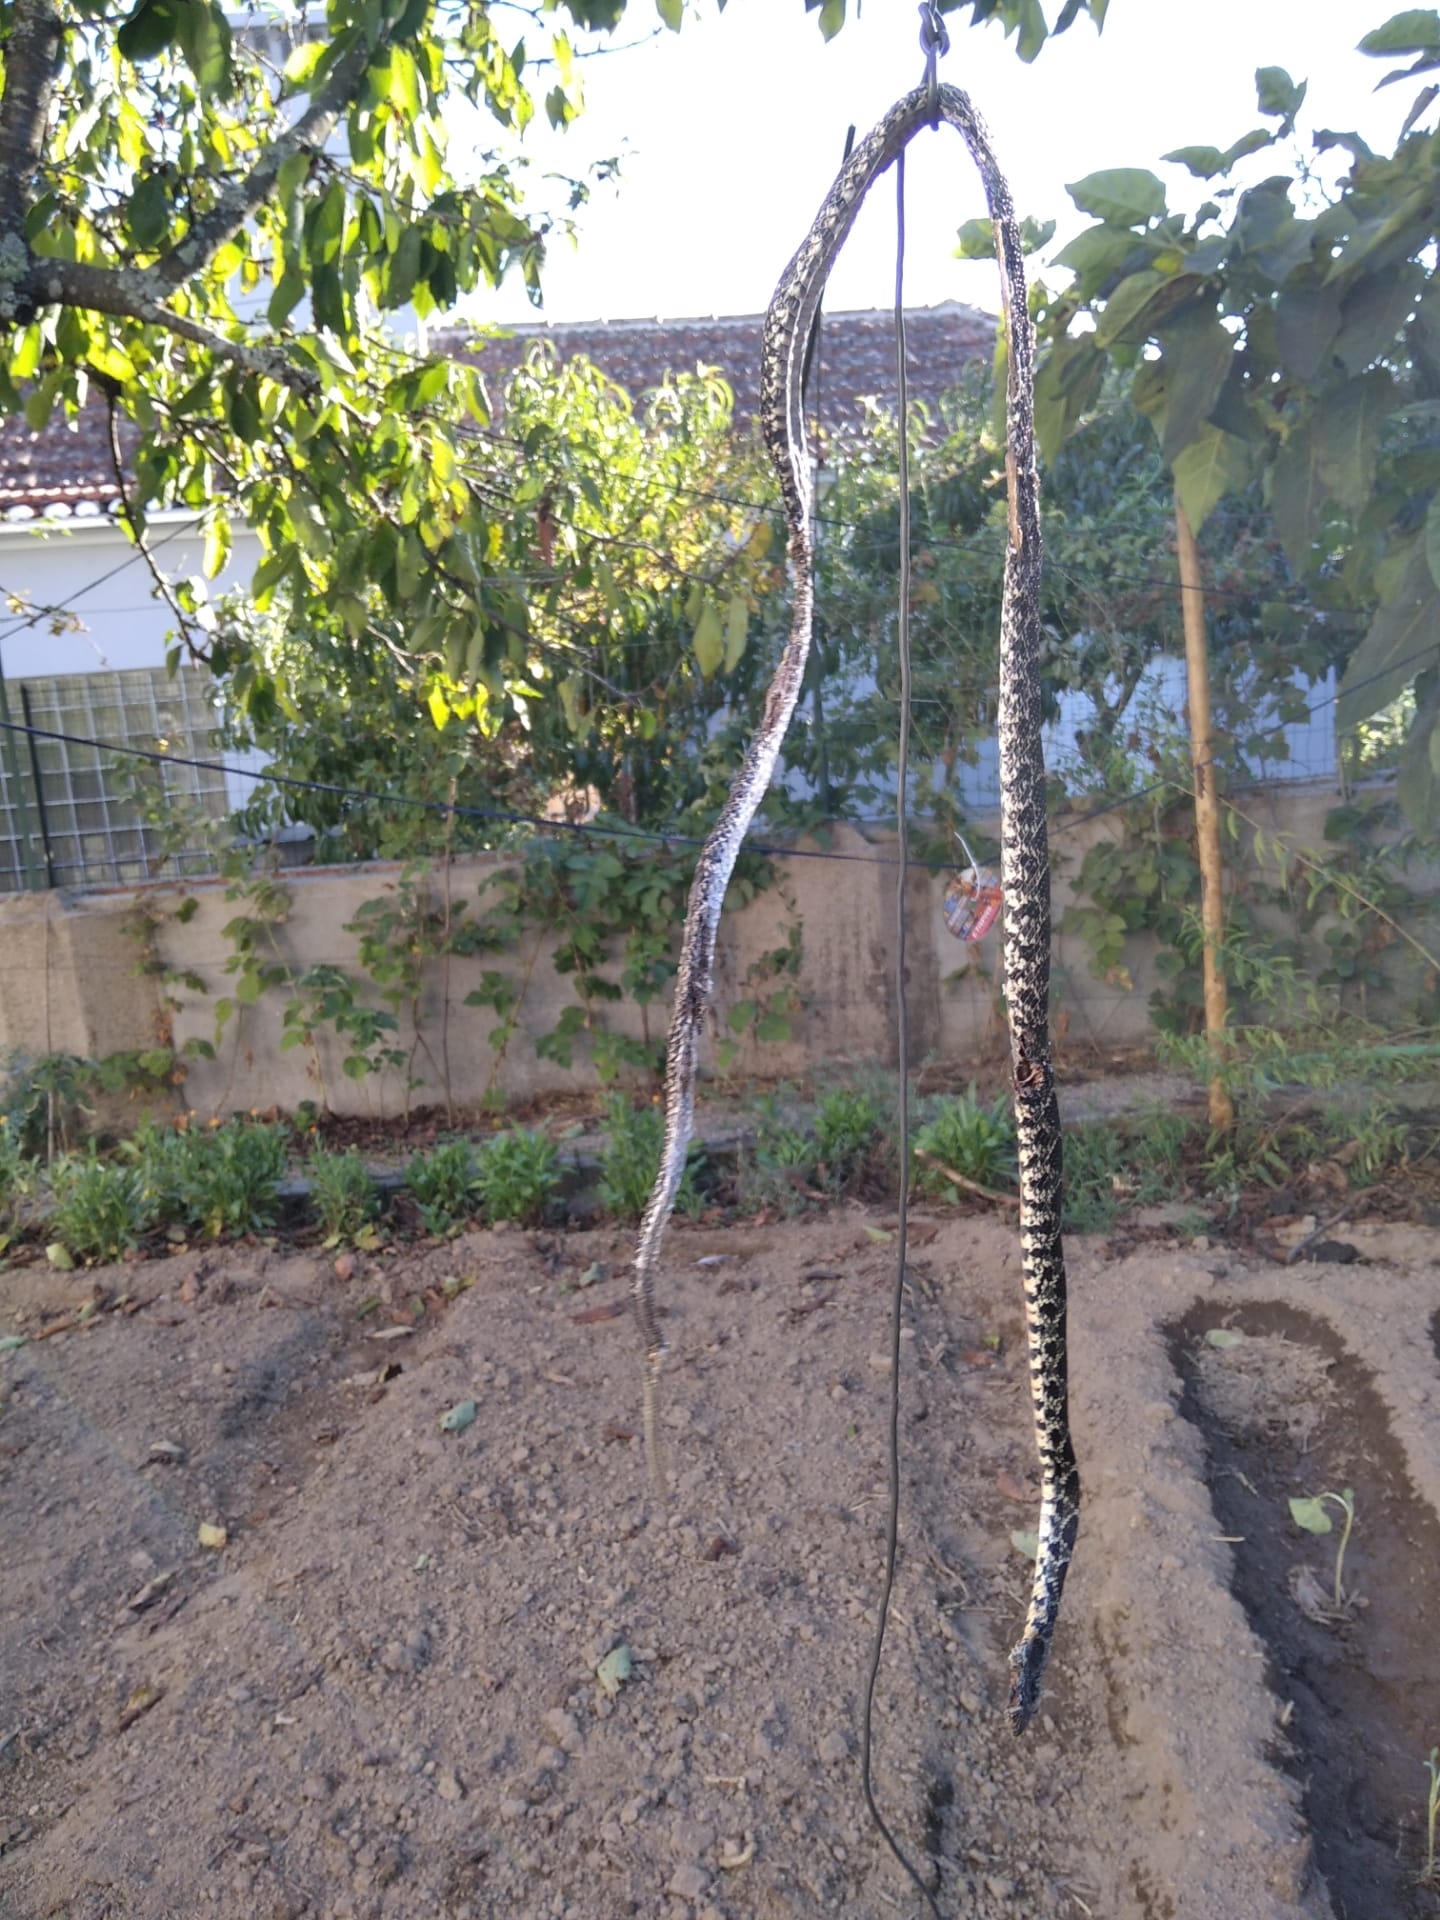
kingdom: Animalia
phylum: Chordata
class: Squamata
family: Colubridae
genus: Hemorrhois
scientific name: Hemorrhois hippocrepis
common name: Horseshoe whip snake
